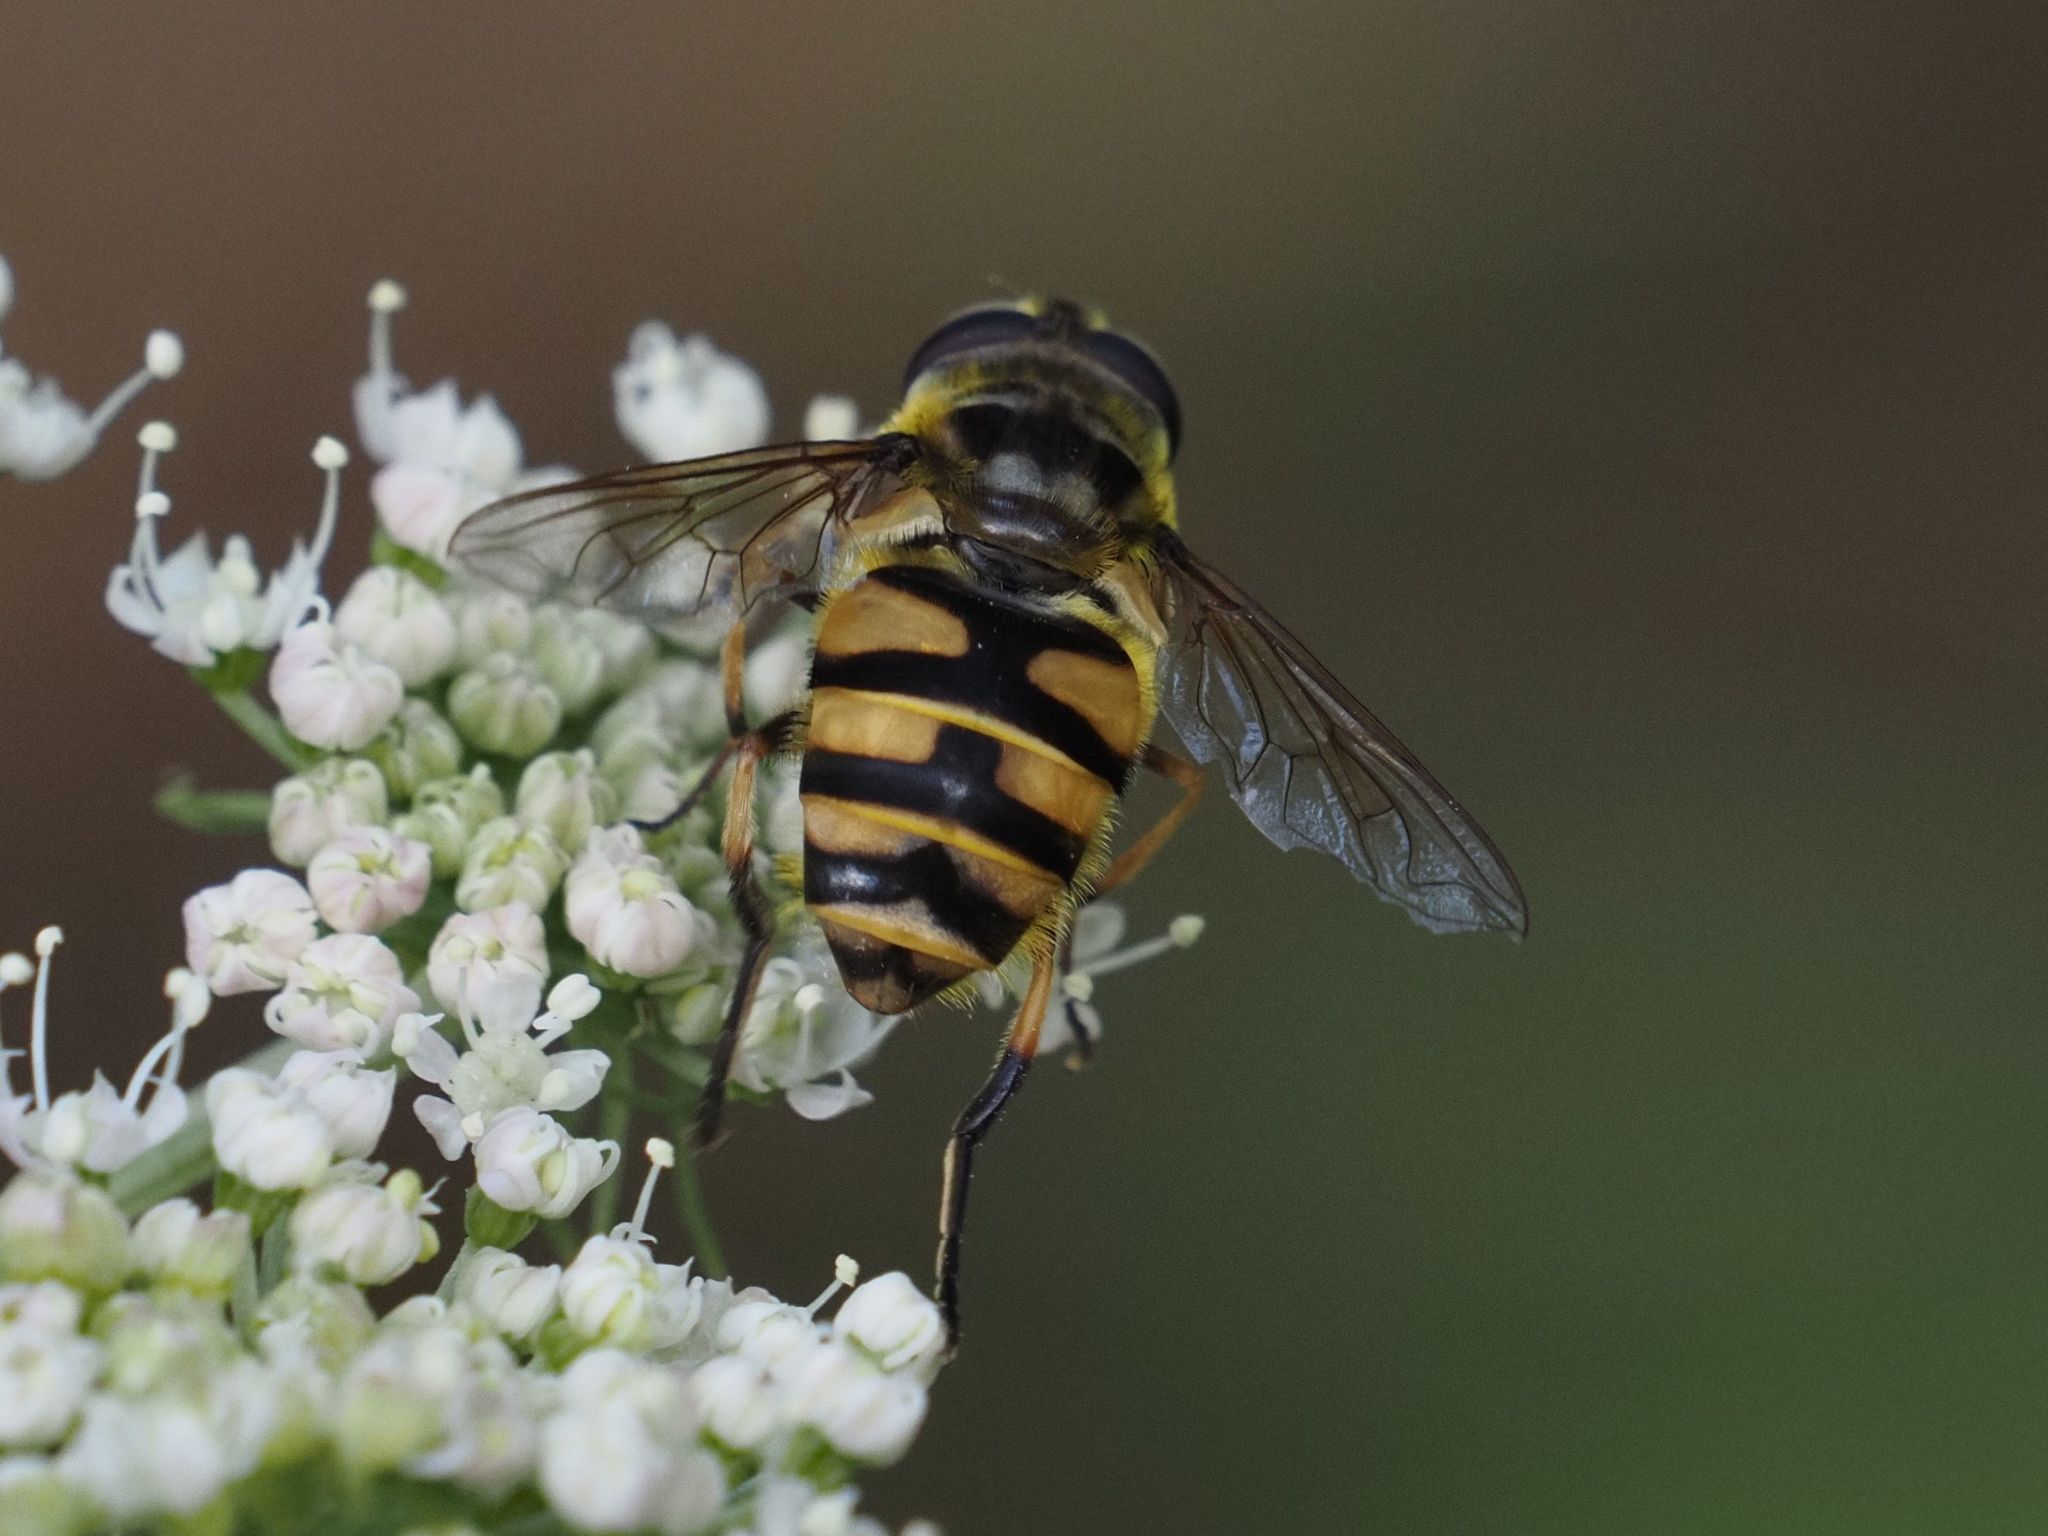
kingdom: Animalia
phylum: Arthropoda
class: Insecta
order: Diptera
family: Syrphidae
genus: Myathropa
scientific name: Myathropa florea
